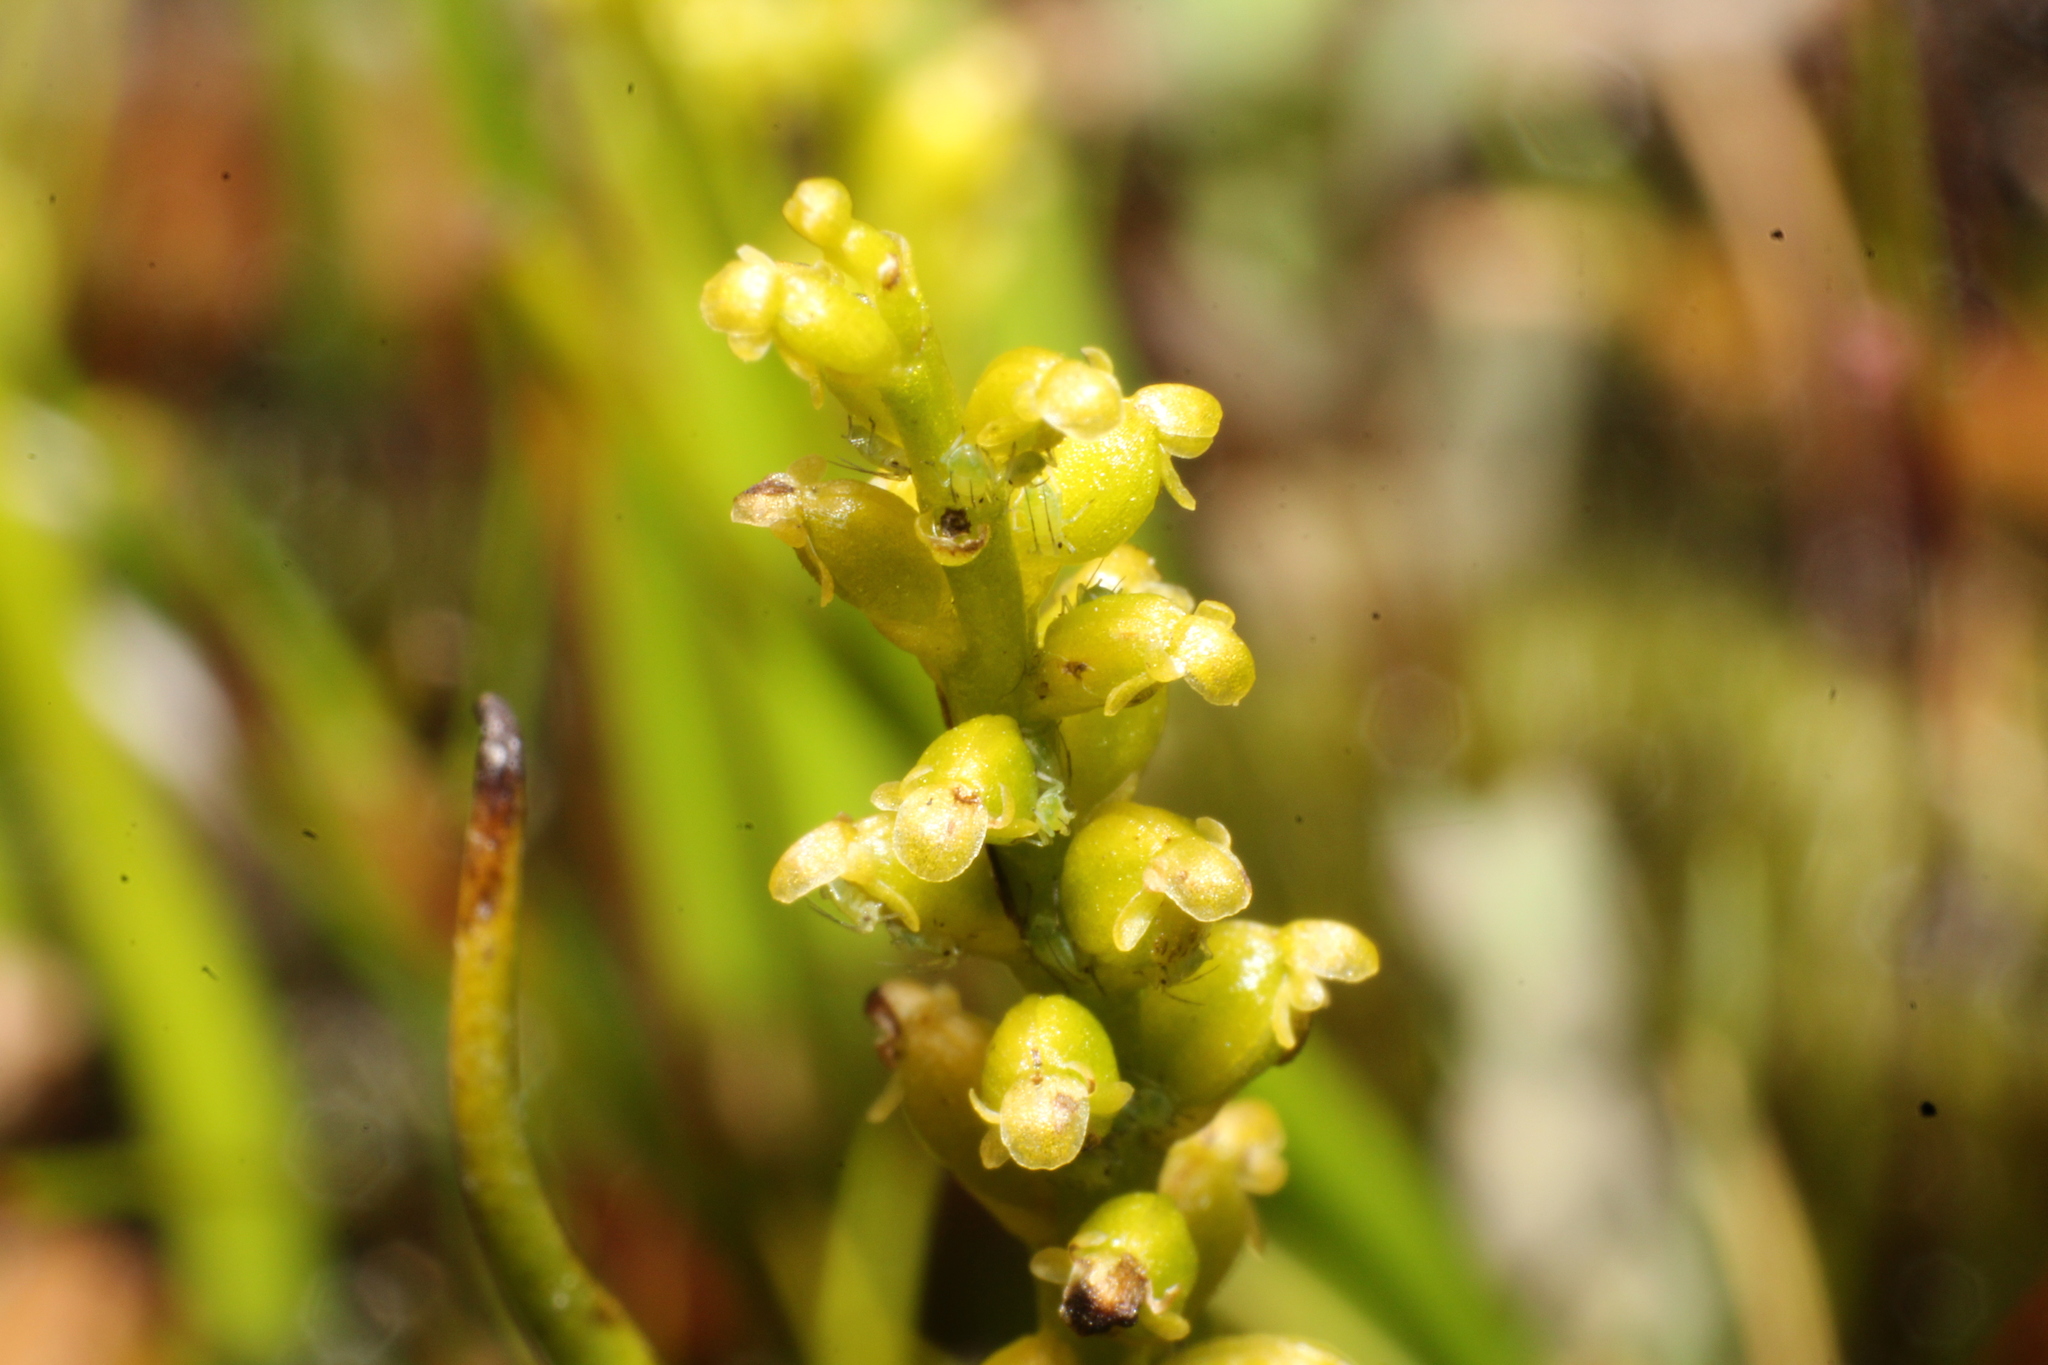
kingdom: Plantae
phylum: Tracheophyta
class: Liliopsida
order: Asparagales
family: Orchidaceae
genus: Microtis
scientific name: Microtis atrata
